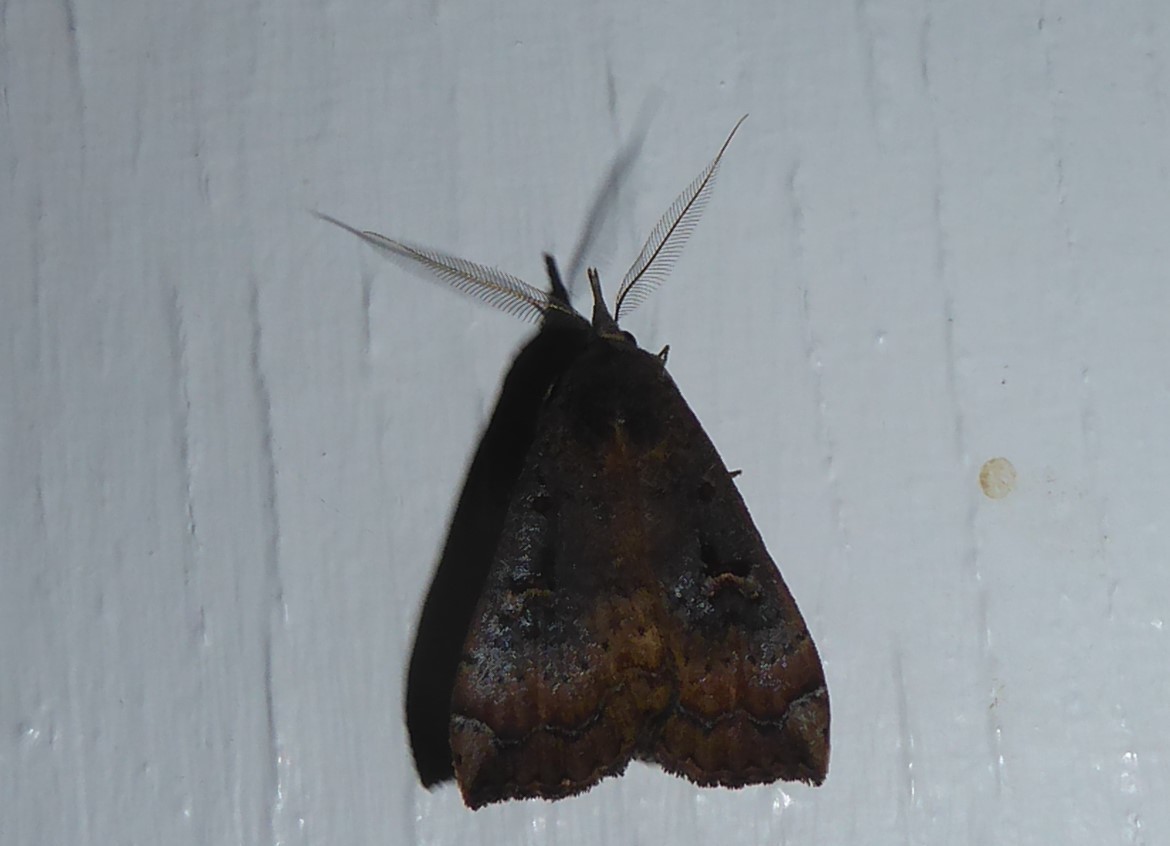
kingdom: Animalia
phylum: Arthropoda
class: Insecta
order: Lepidoptera
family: Erebidae
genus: Rhapsa
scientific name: Rhapsa scotosialis
